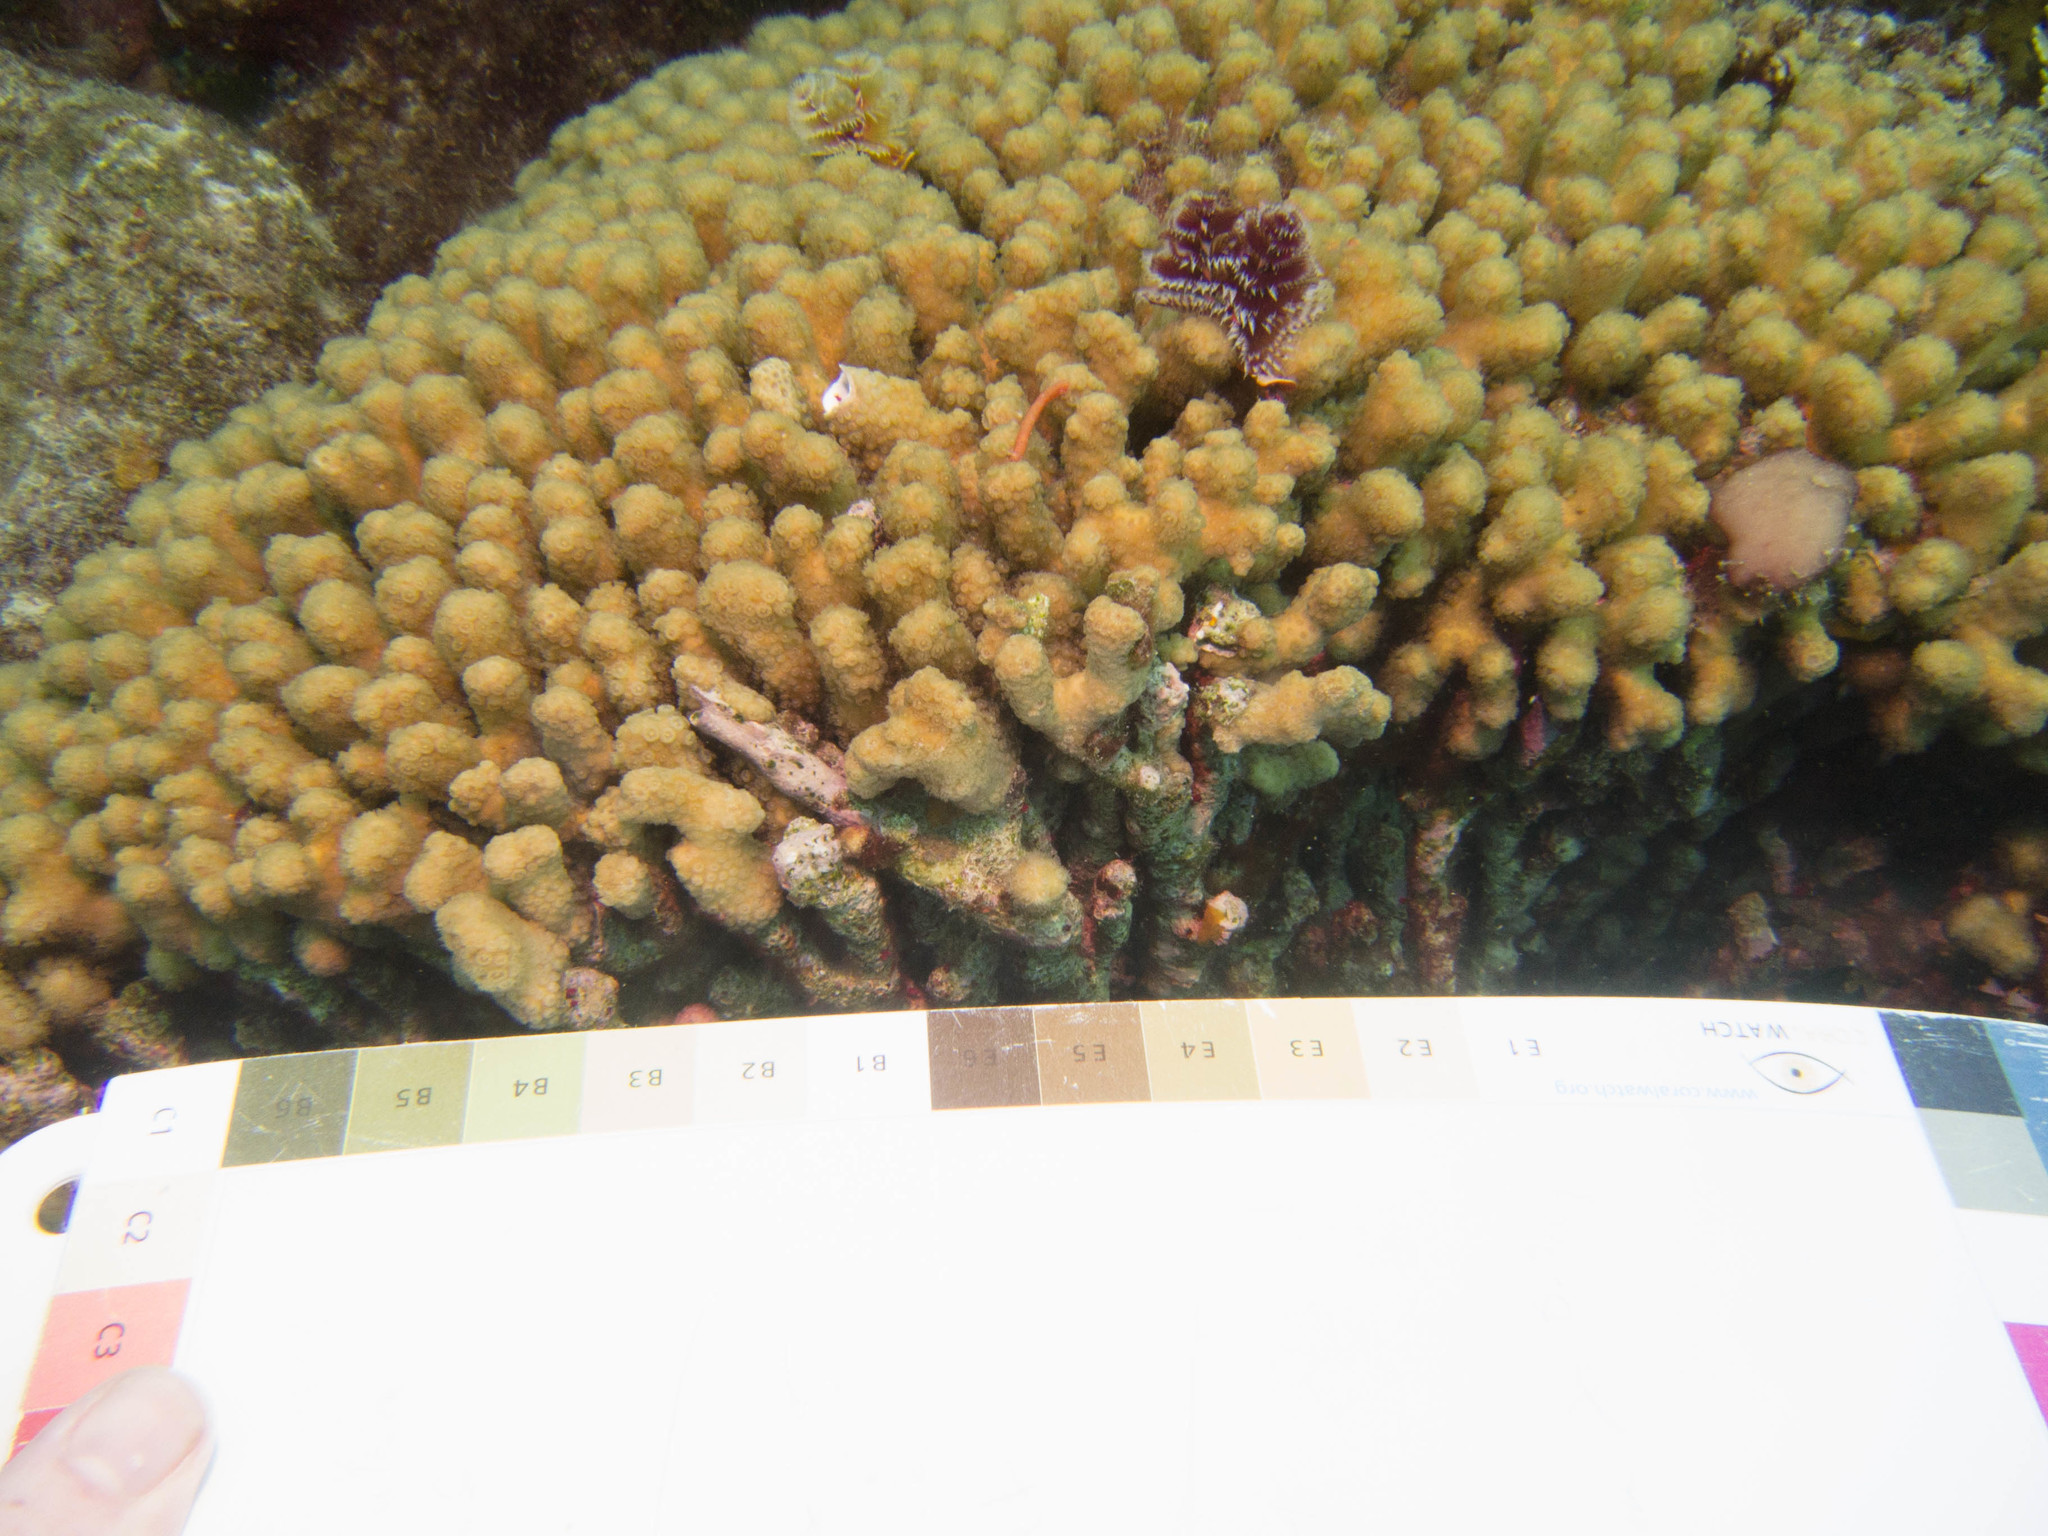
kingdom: Animalia
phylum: Annelida
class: Polychaeta
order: Sabellida
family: Serpulidae
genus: Spirobranchus
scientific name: Spirobranchus giganteus
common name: Christmas tree worm
